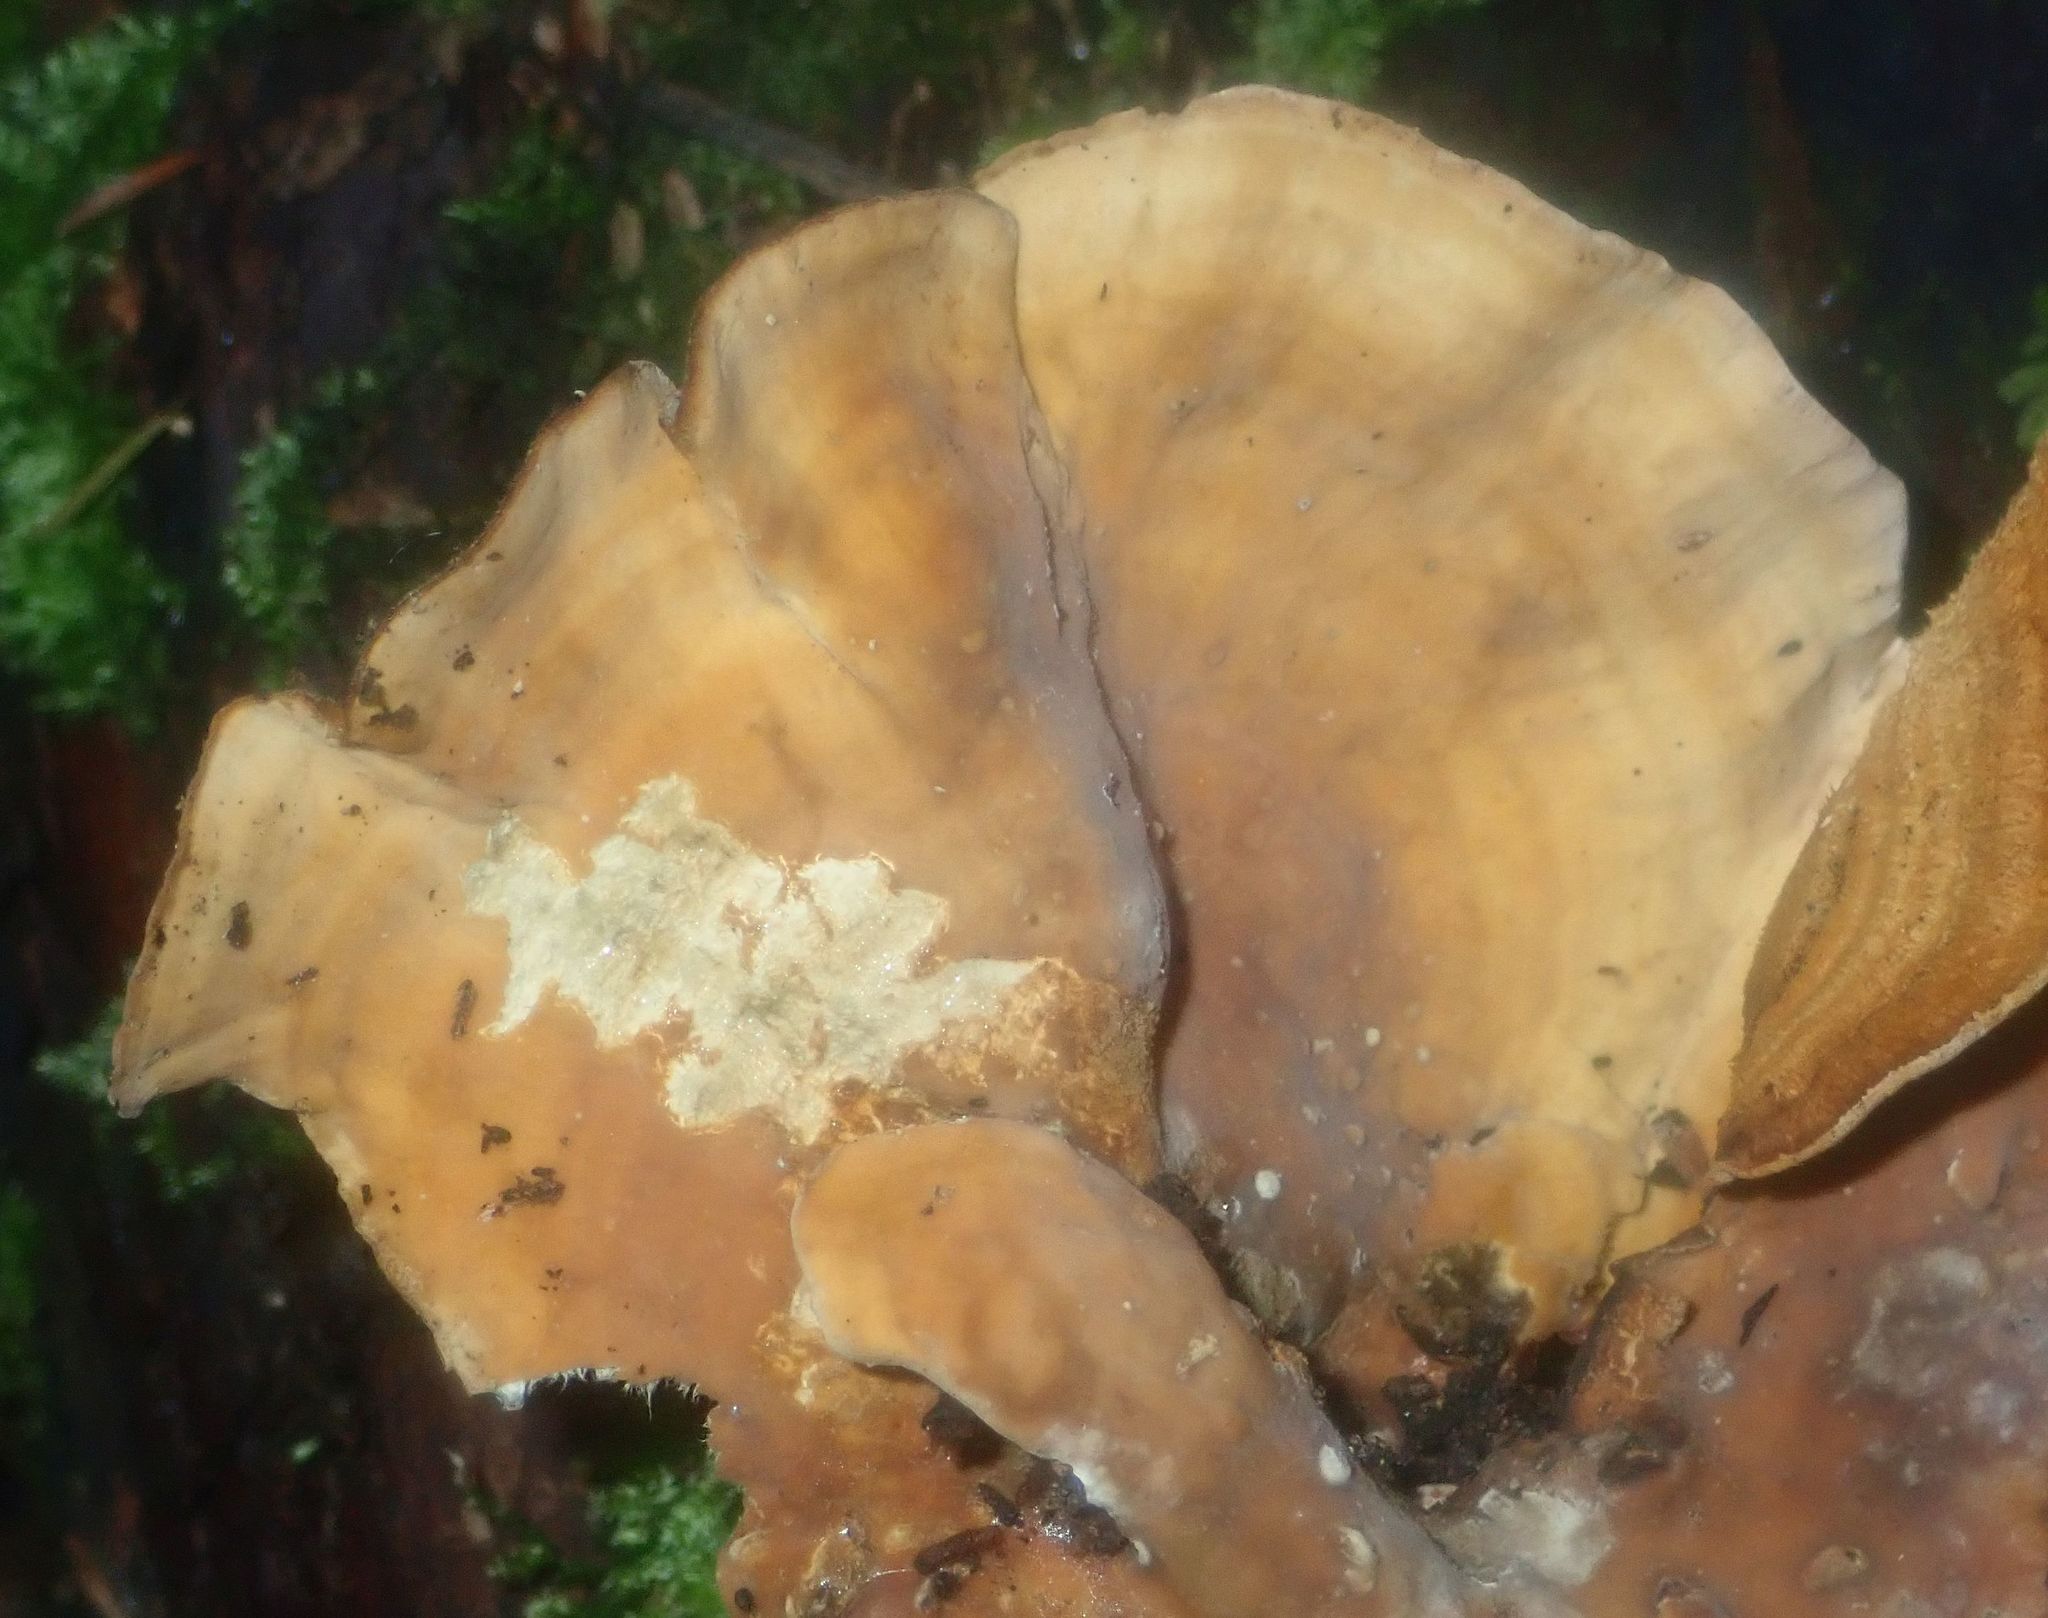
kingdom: Fungi
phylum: Basidiomycota
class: Agaricomycetes
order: Russulales
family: Stereaceae
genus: Stereum
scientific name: Stereum ostrea
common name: False turkeytail
